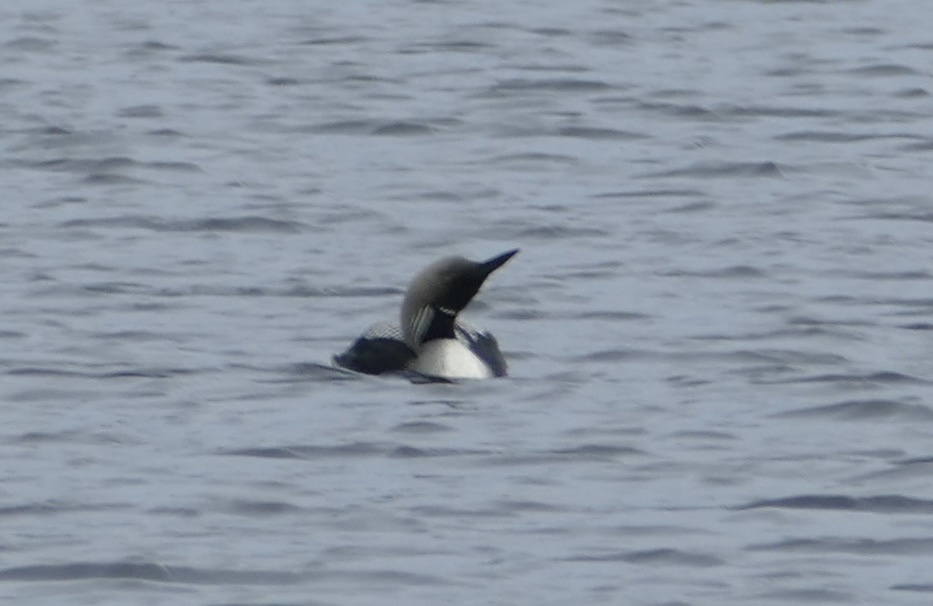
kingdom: Animalia
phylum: Chordata
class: Aves
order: Gaviiformes
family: Gaviidae
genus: Gavia
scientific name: Gavia arctica
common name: Black-throated loon
